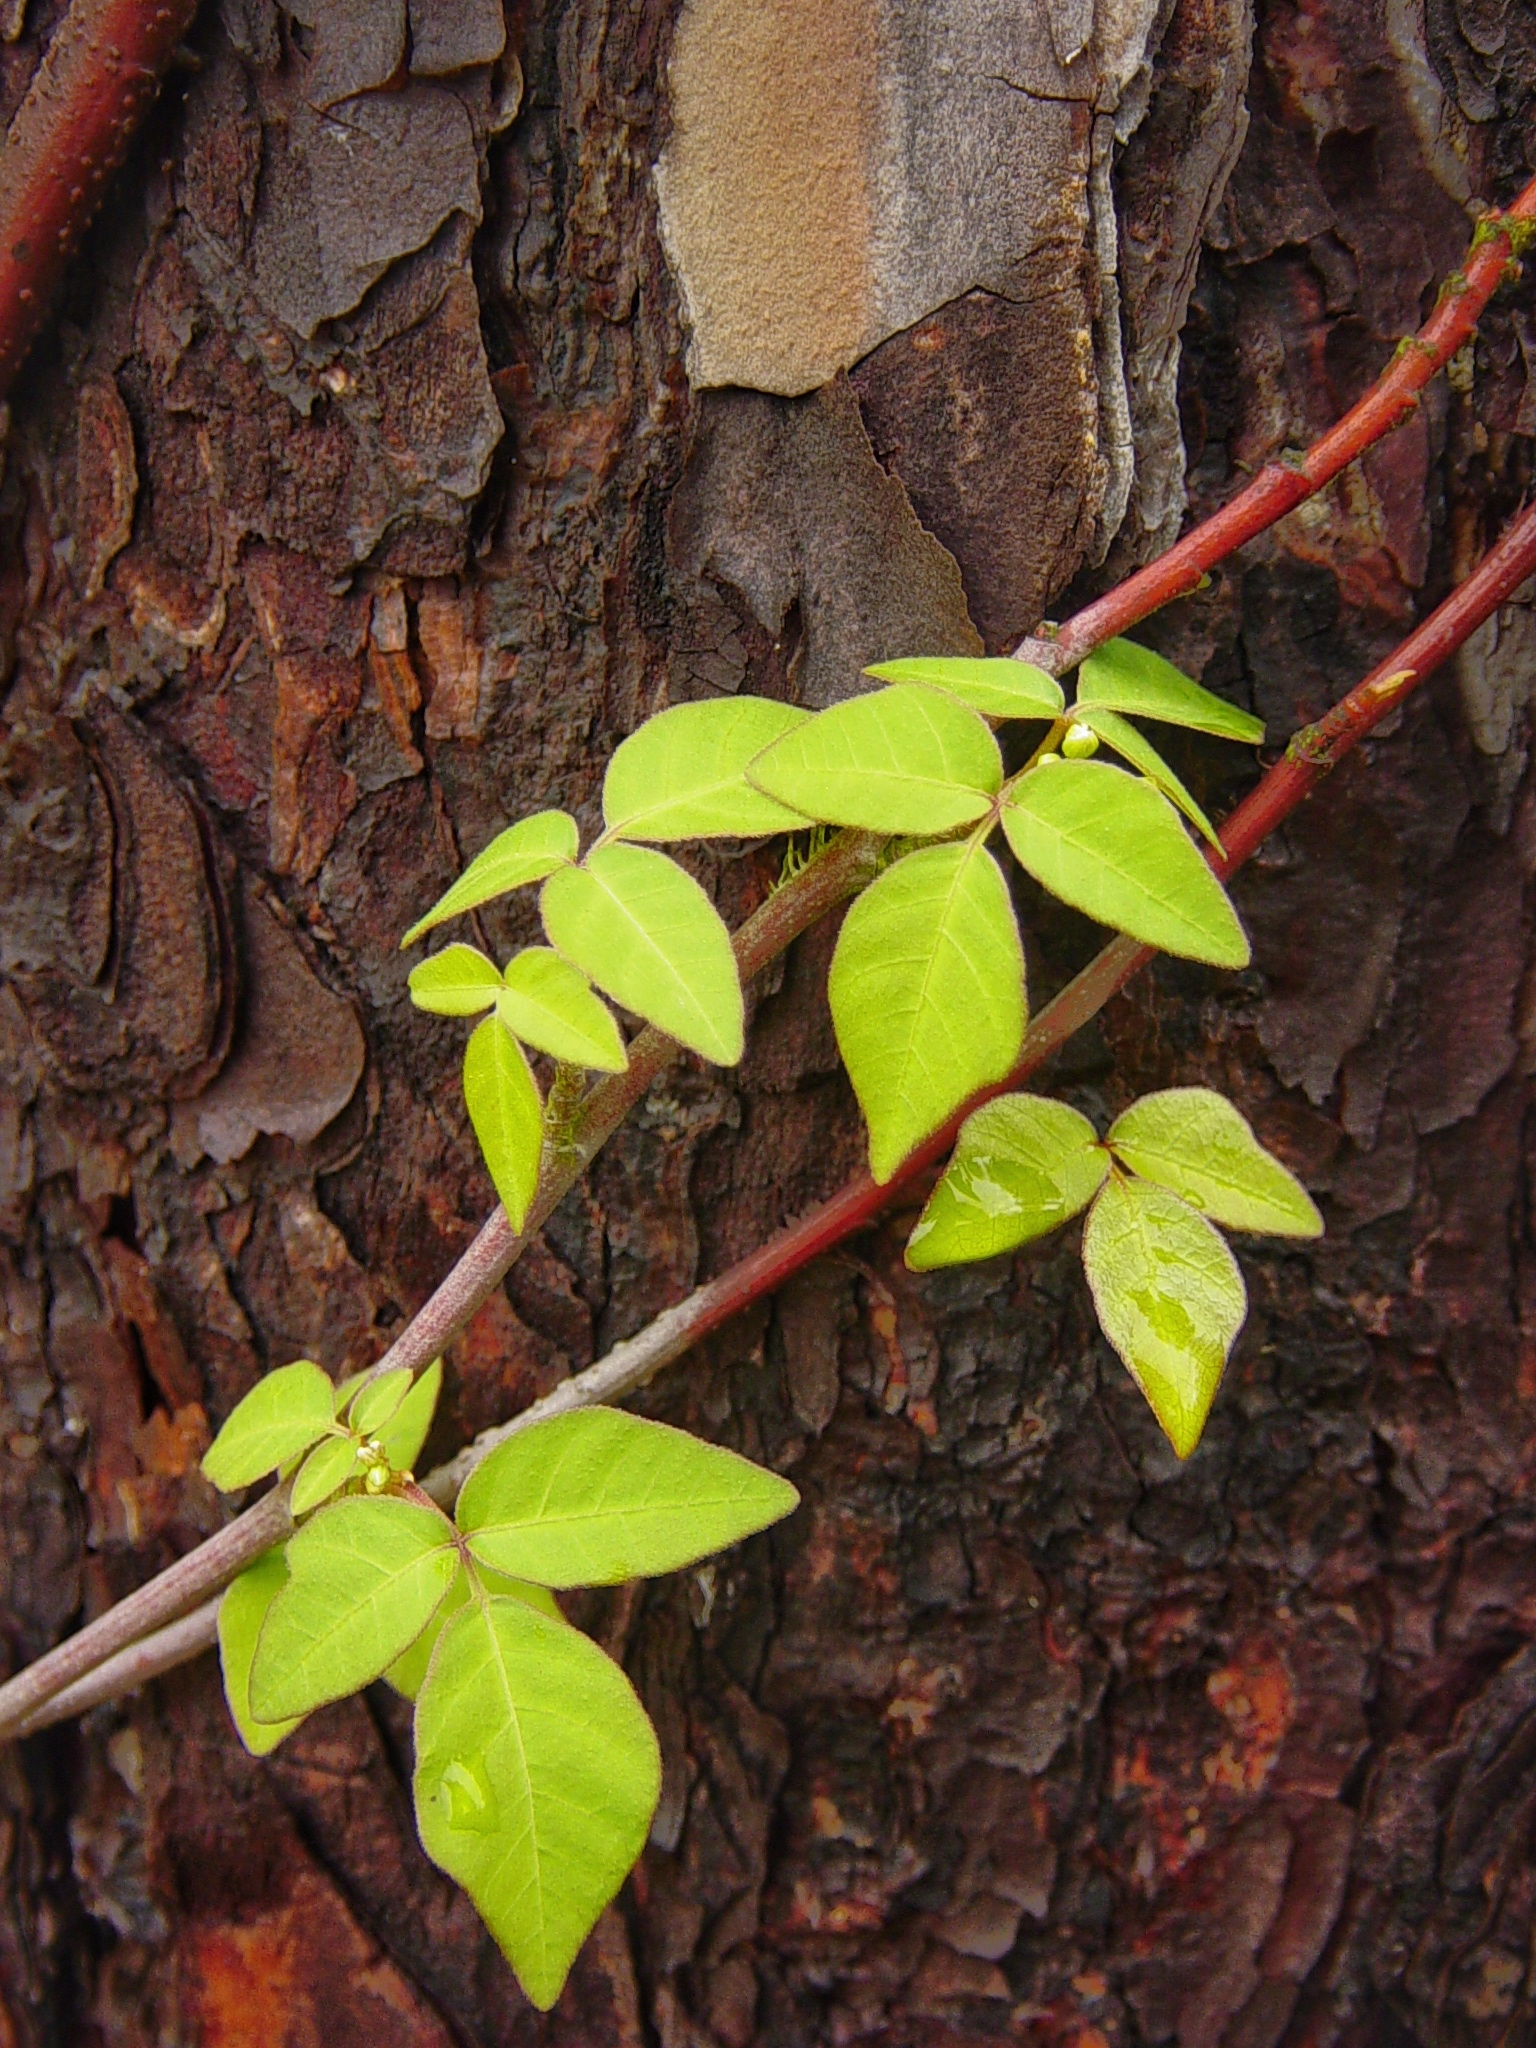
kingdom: Plantae
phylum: Tracheophyta
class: Magnoliopsida
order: Sapindales
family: Anacardiaceae
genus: Toxicodendron
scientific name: Toxicodendron radicans
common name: Poison ivy
